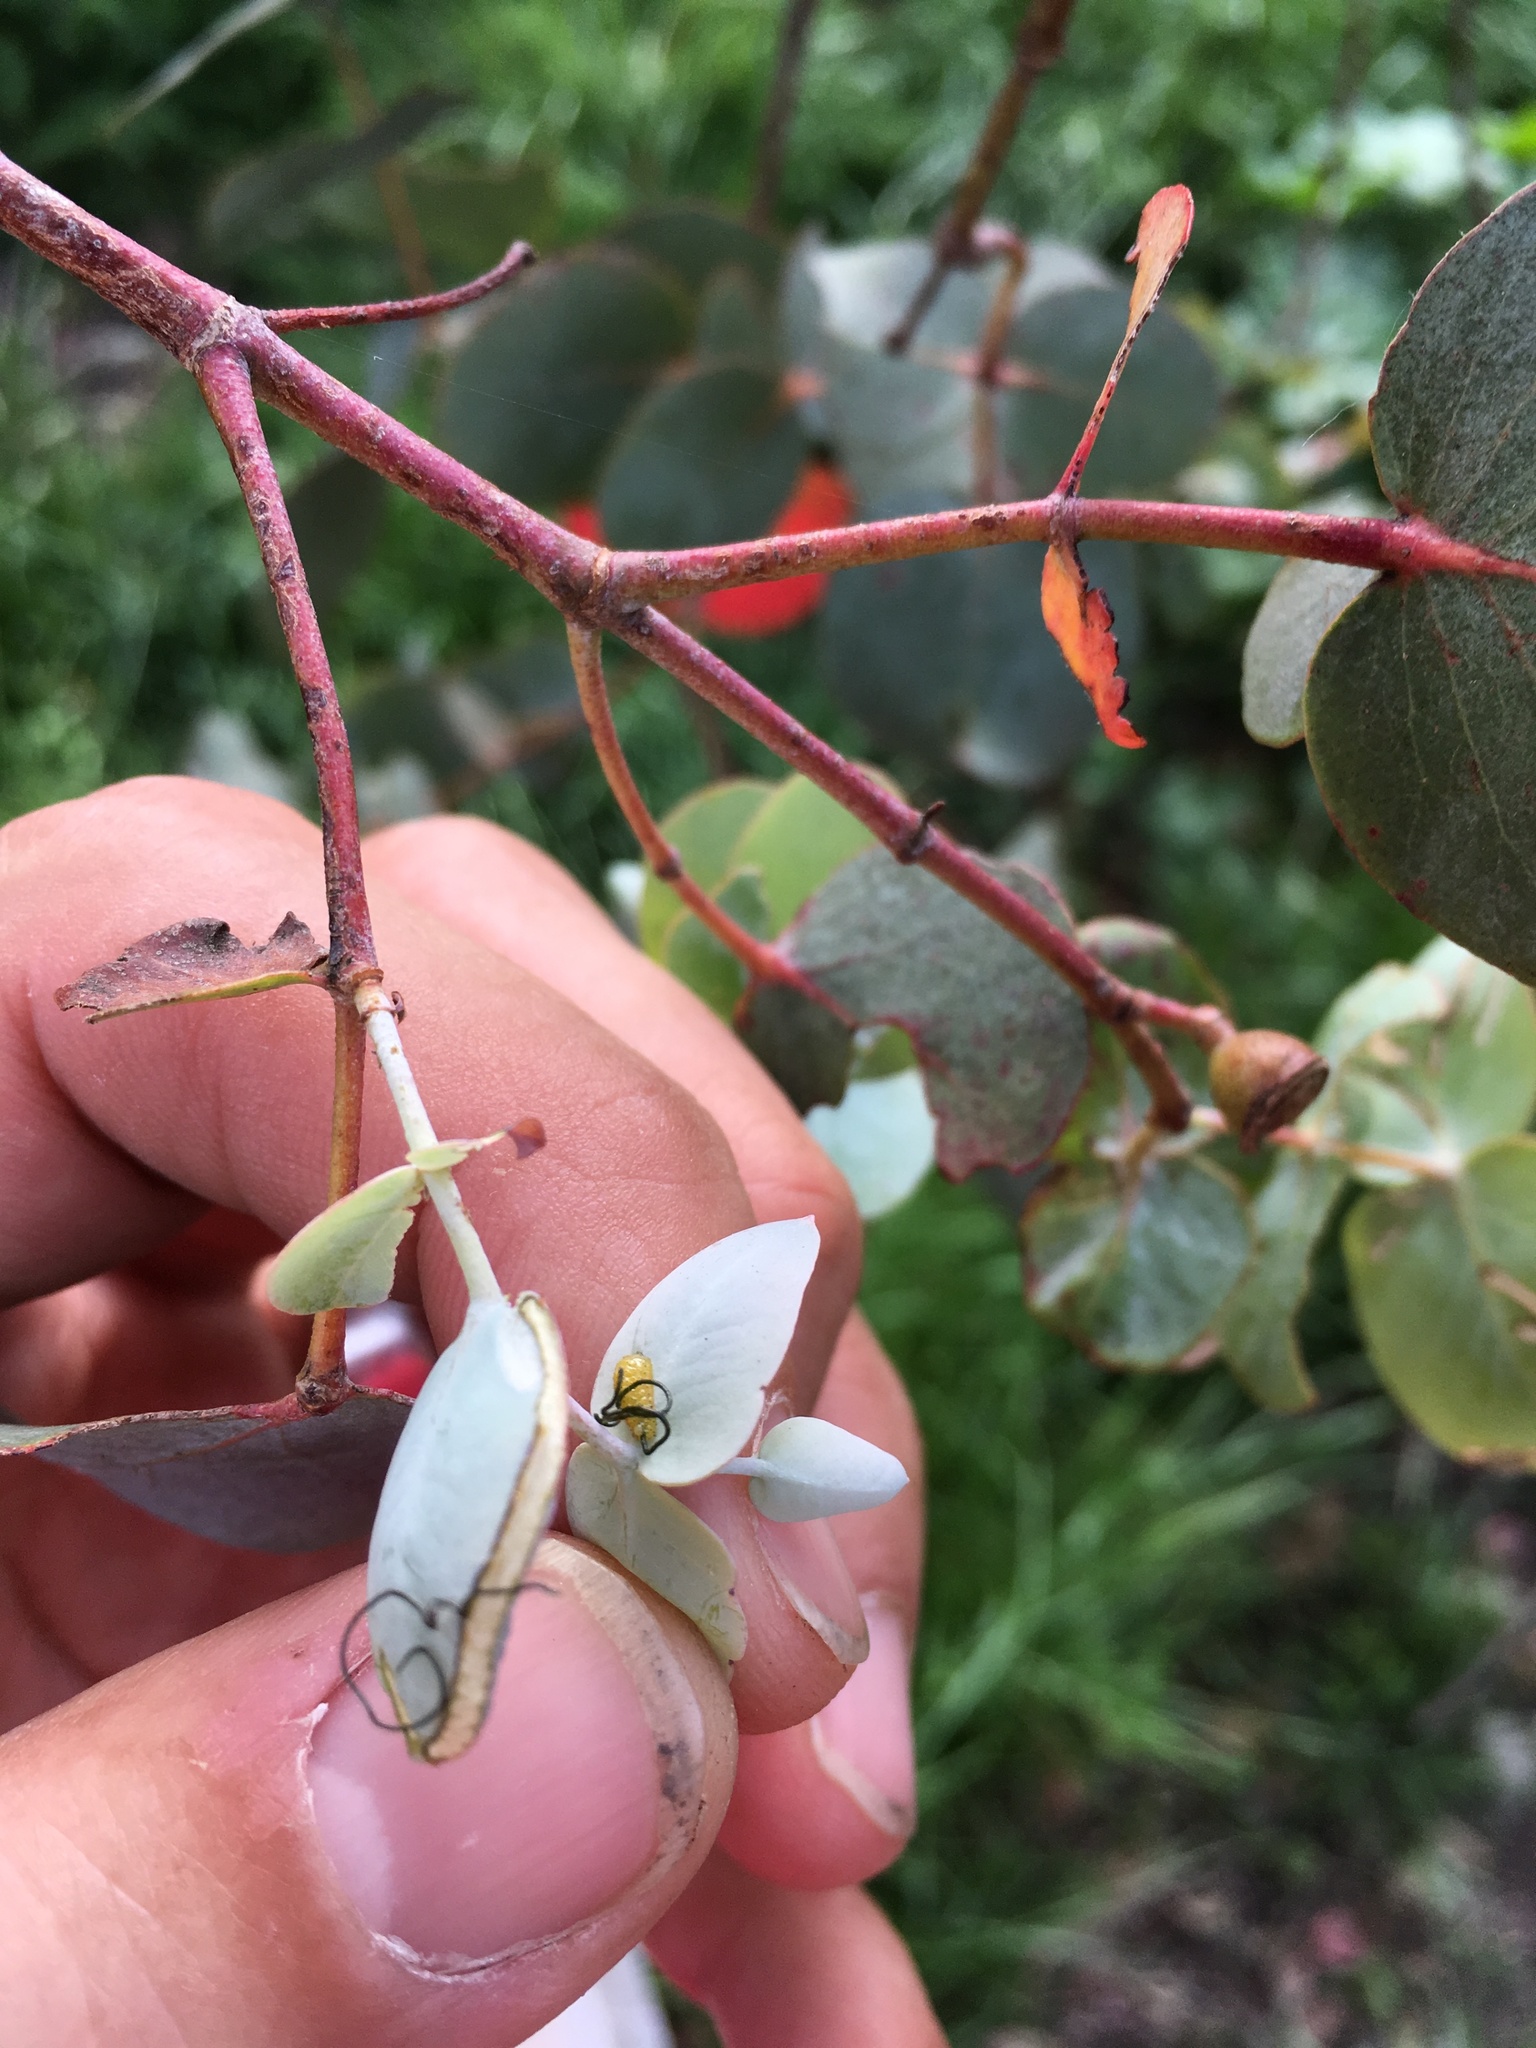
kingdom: Animalia
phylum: Arthropoda
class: Insecta
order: Coleoptera
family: Curculionidae
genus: Gonipterus
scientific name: Gonipterus platensis
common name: Eucalyptus snout beetle
